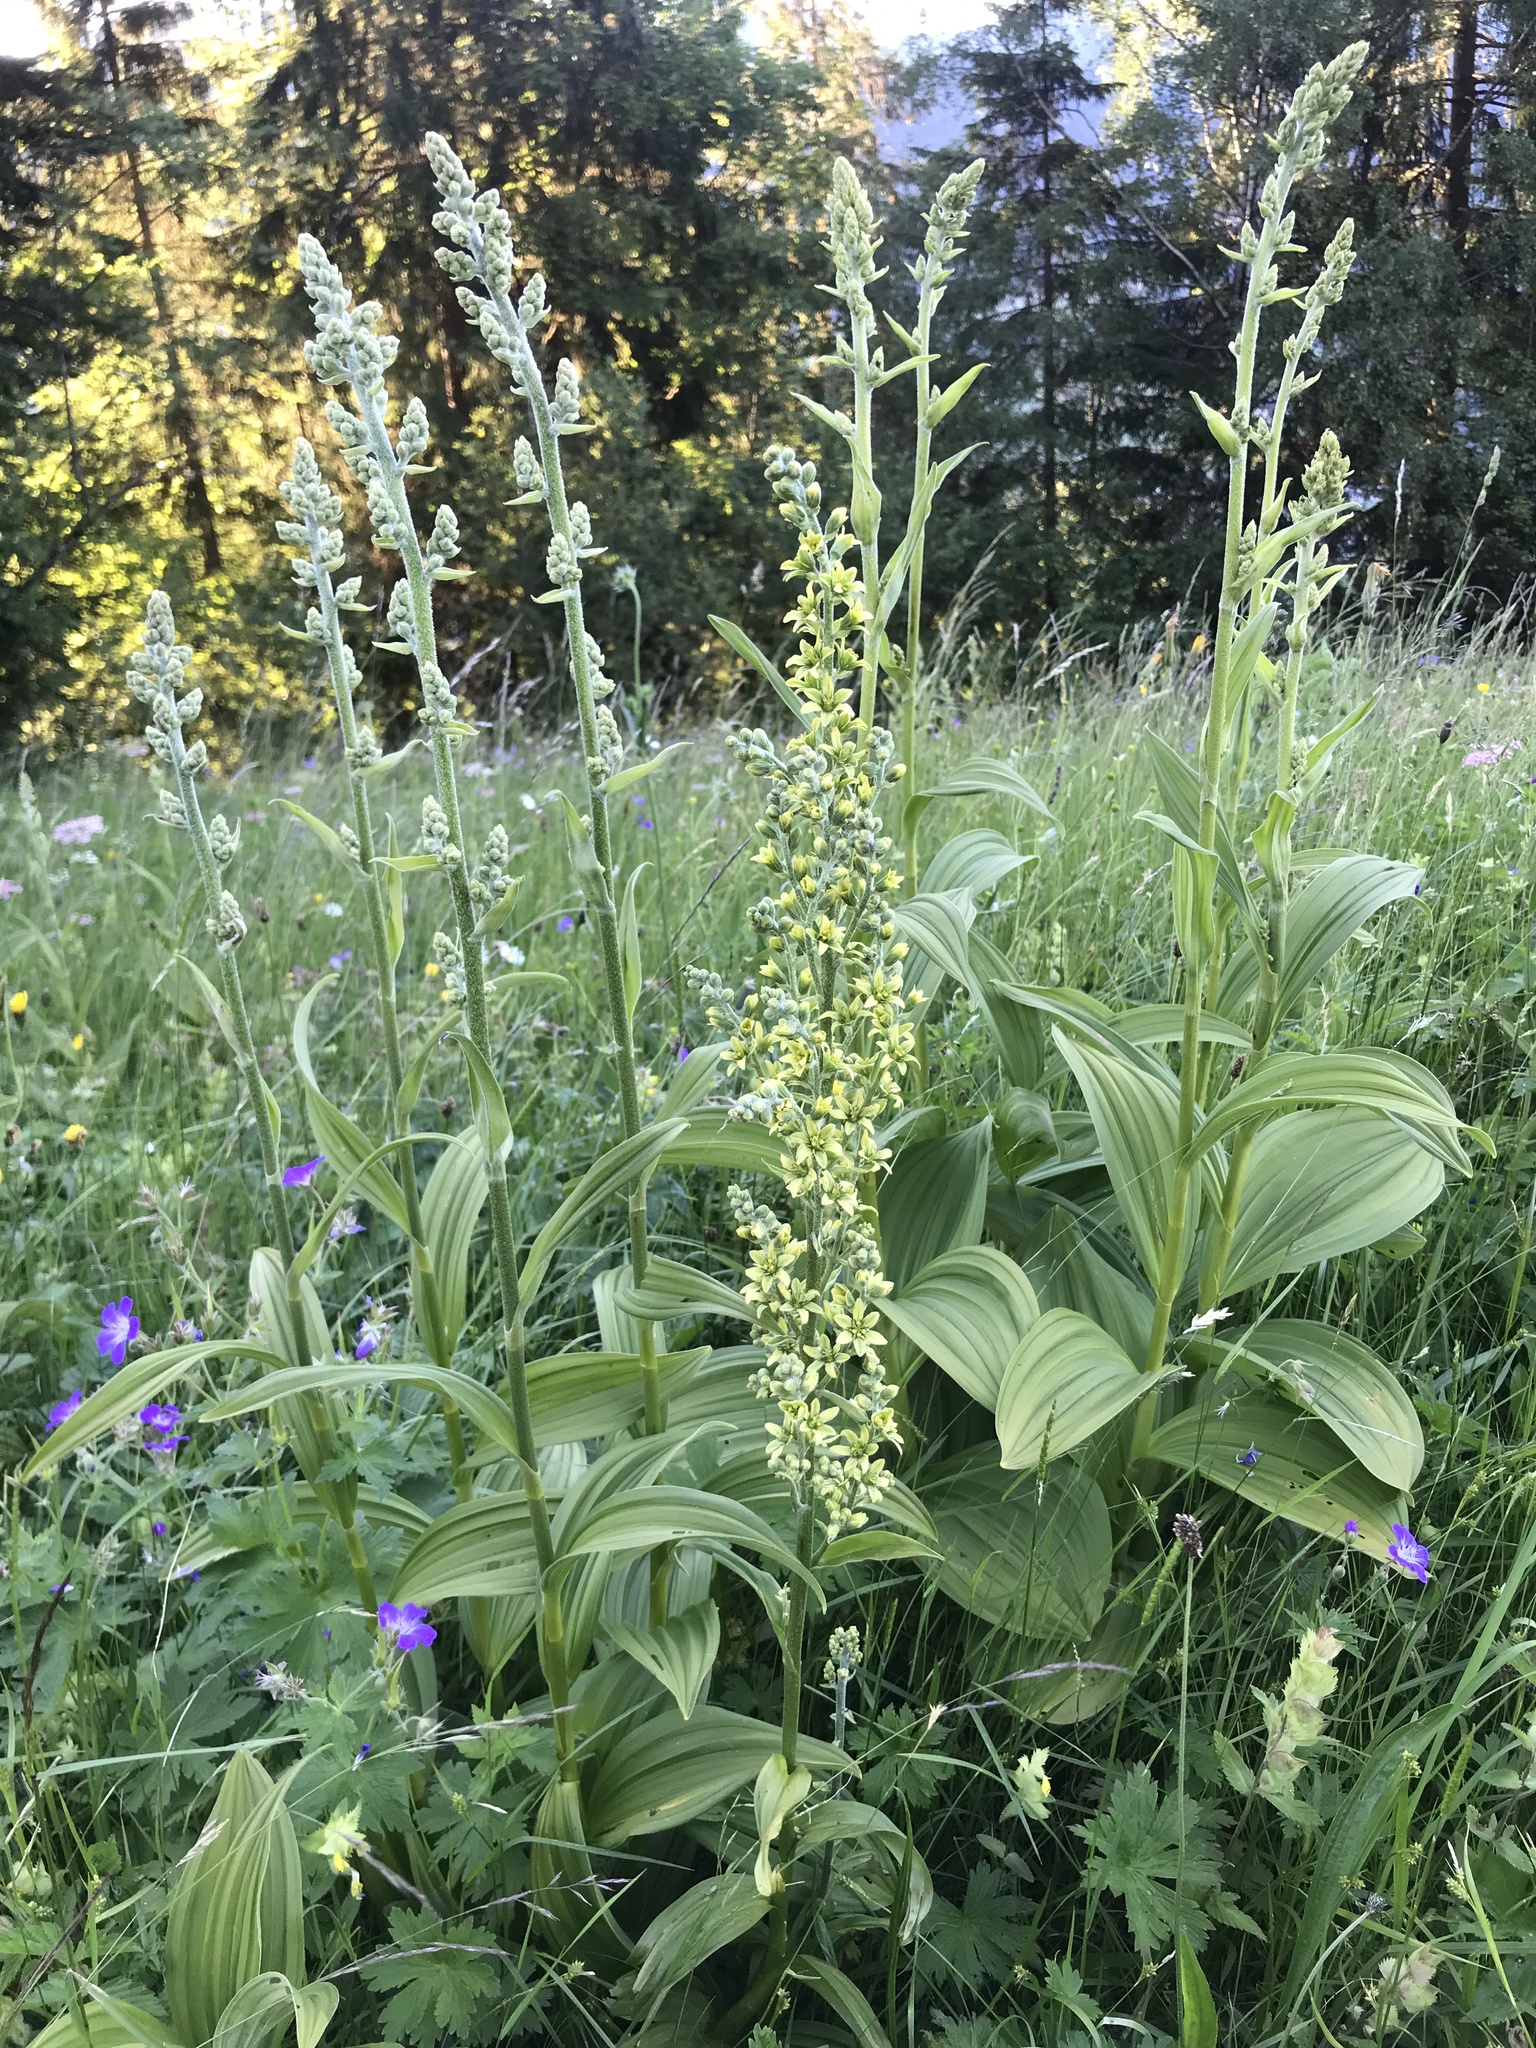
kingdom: Plantae
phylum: Tracheophyta
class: Liliopsida
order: Liliales
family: Melanthiaceae
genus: Veratrum
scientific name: Veratrum lobelianum
